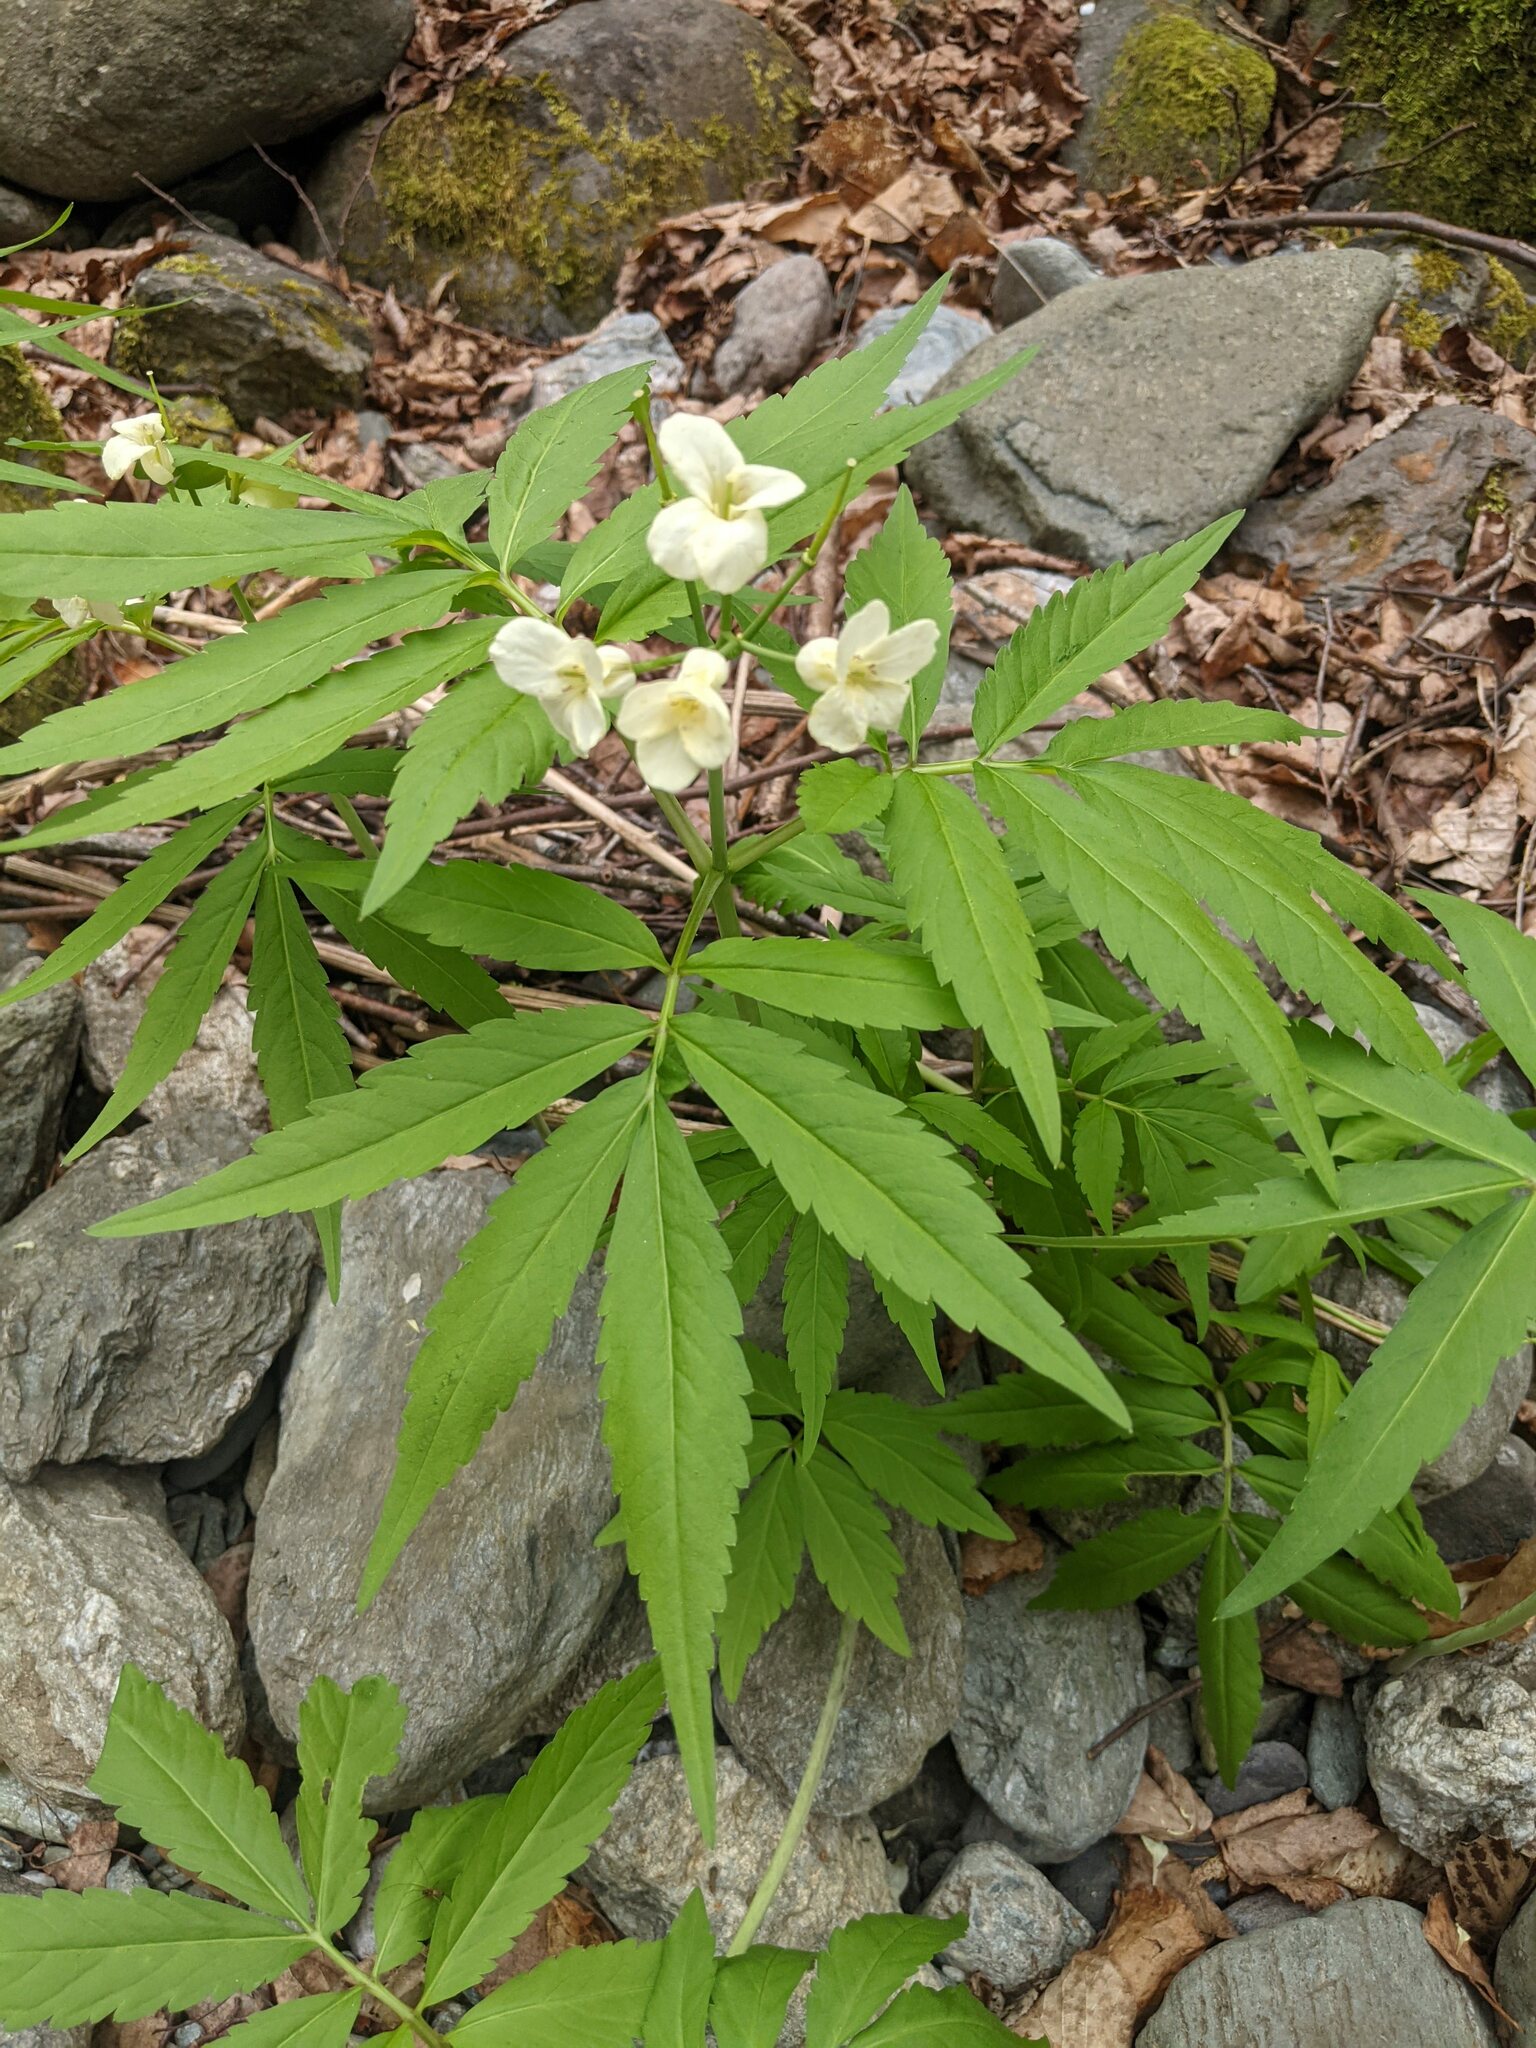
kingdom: Plantae
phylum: Tracheophyta
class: Magnoliopsida
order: Brassicales
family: Brassicaceae
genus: Cardamine
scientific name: Cardamine kitaibelii
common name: Kitaibel's bitter-cress
